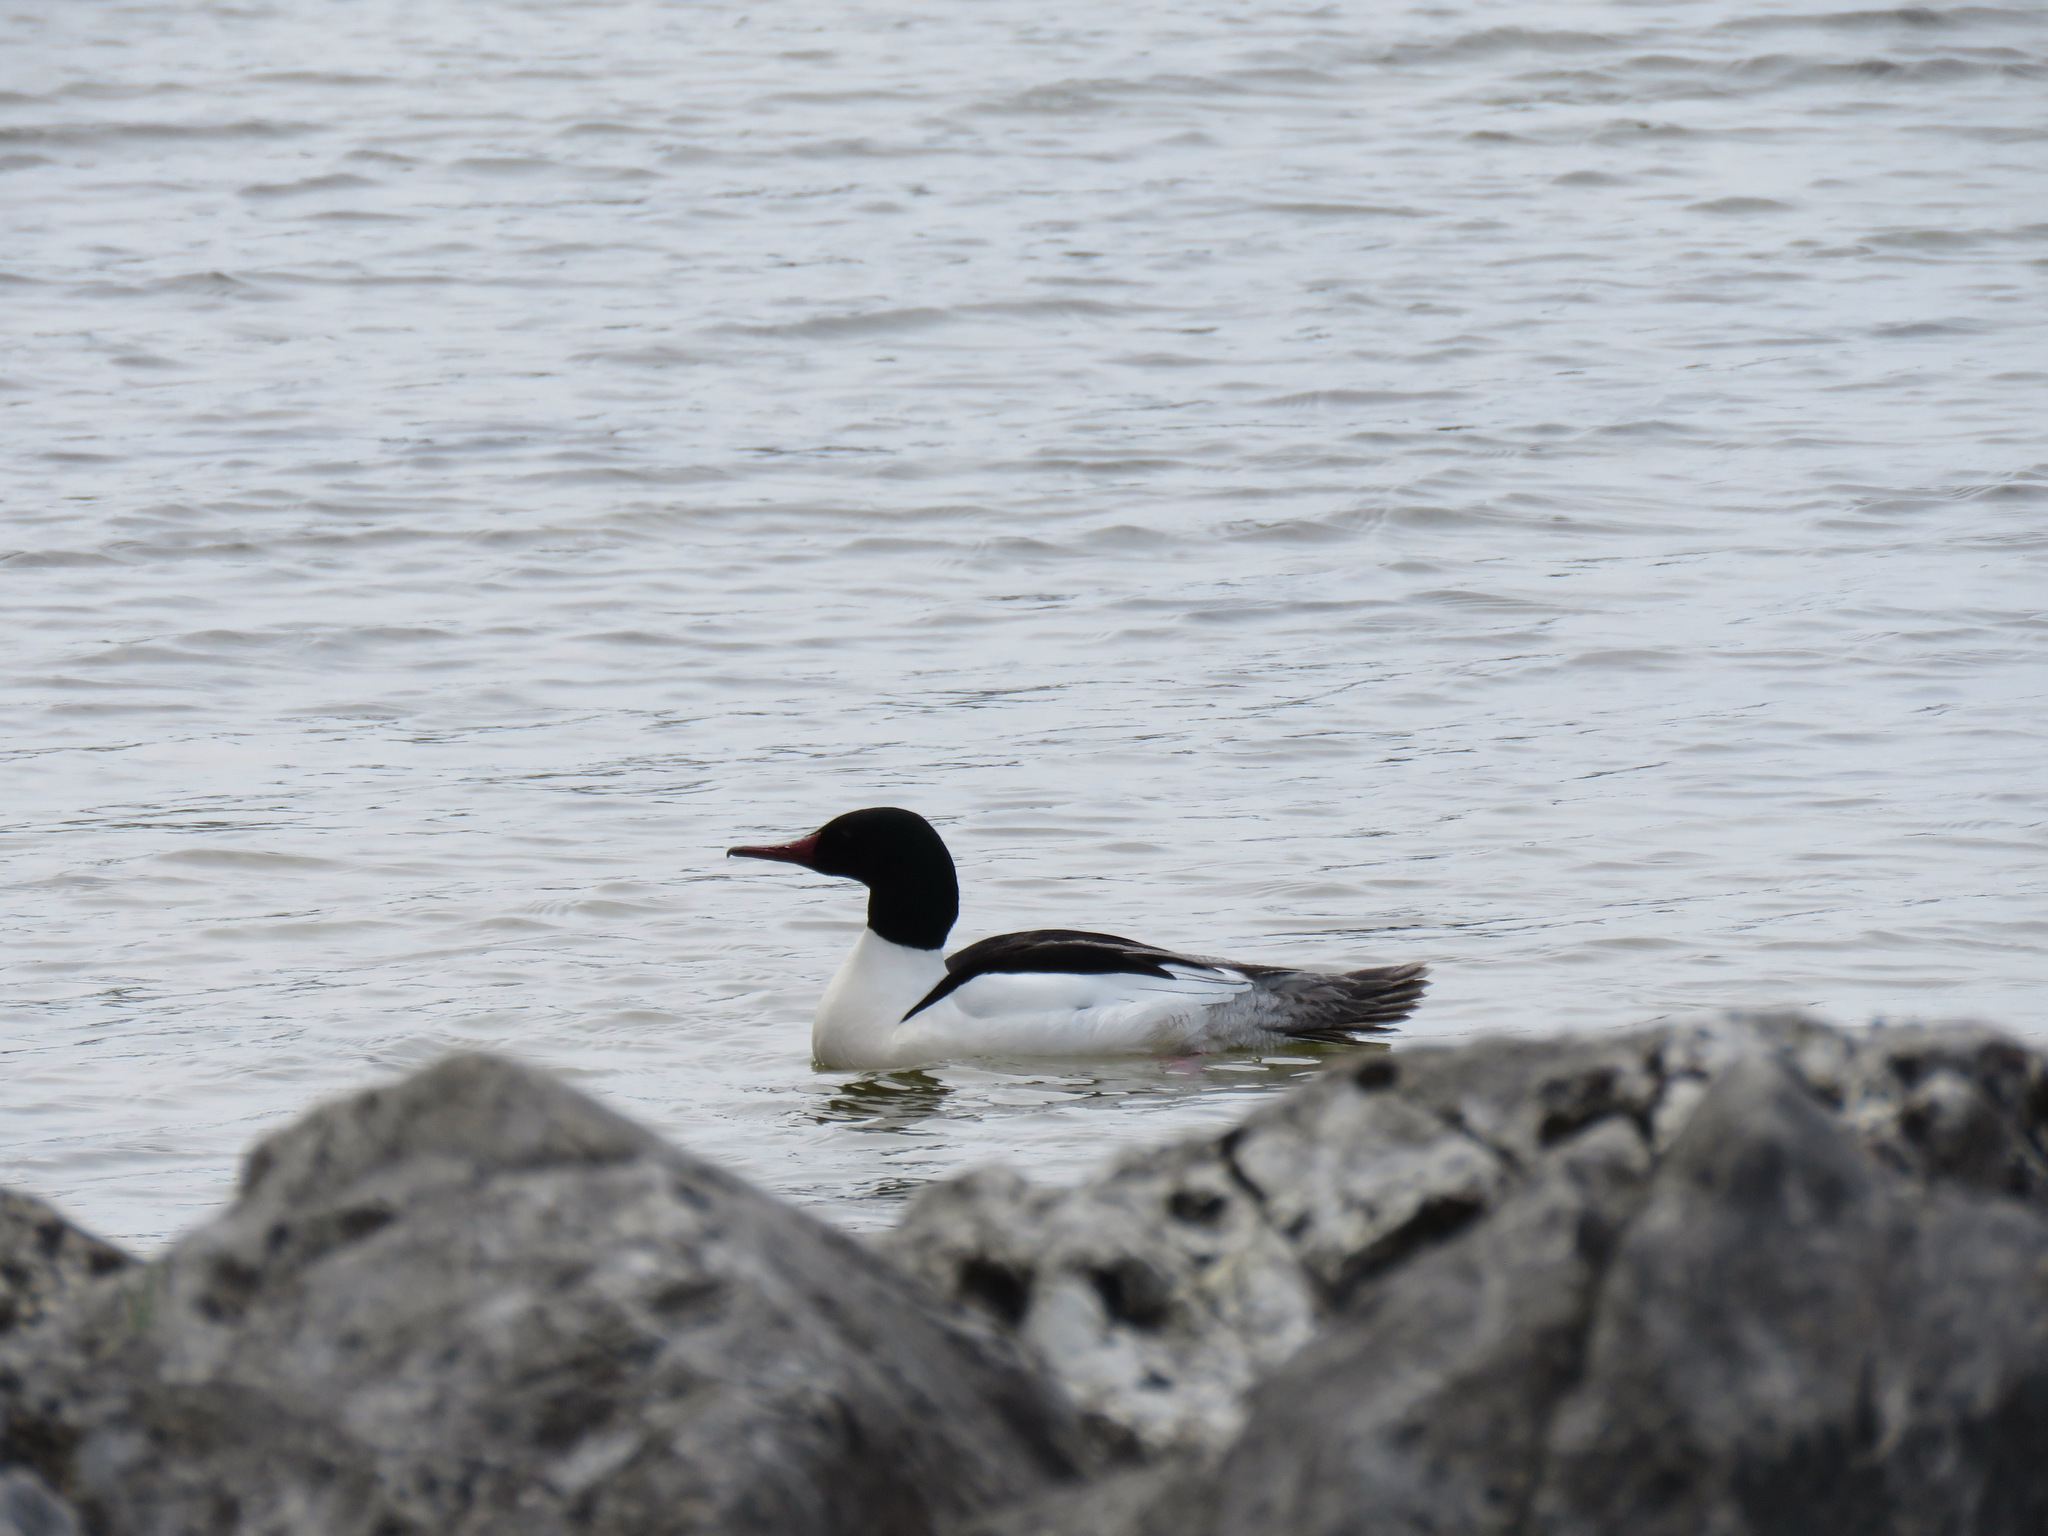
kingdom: Animalia
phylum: Chordata
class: Aves
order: Anseriformes
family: Anatidae
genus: Mergus
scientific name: Mergus merganser
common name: Common merganser
